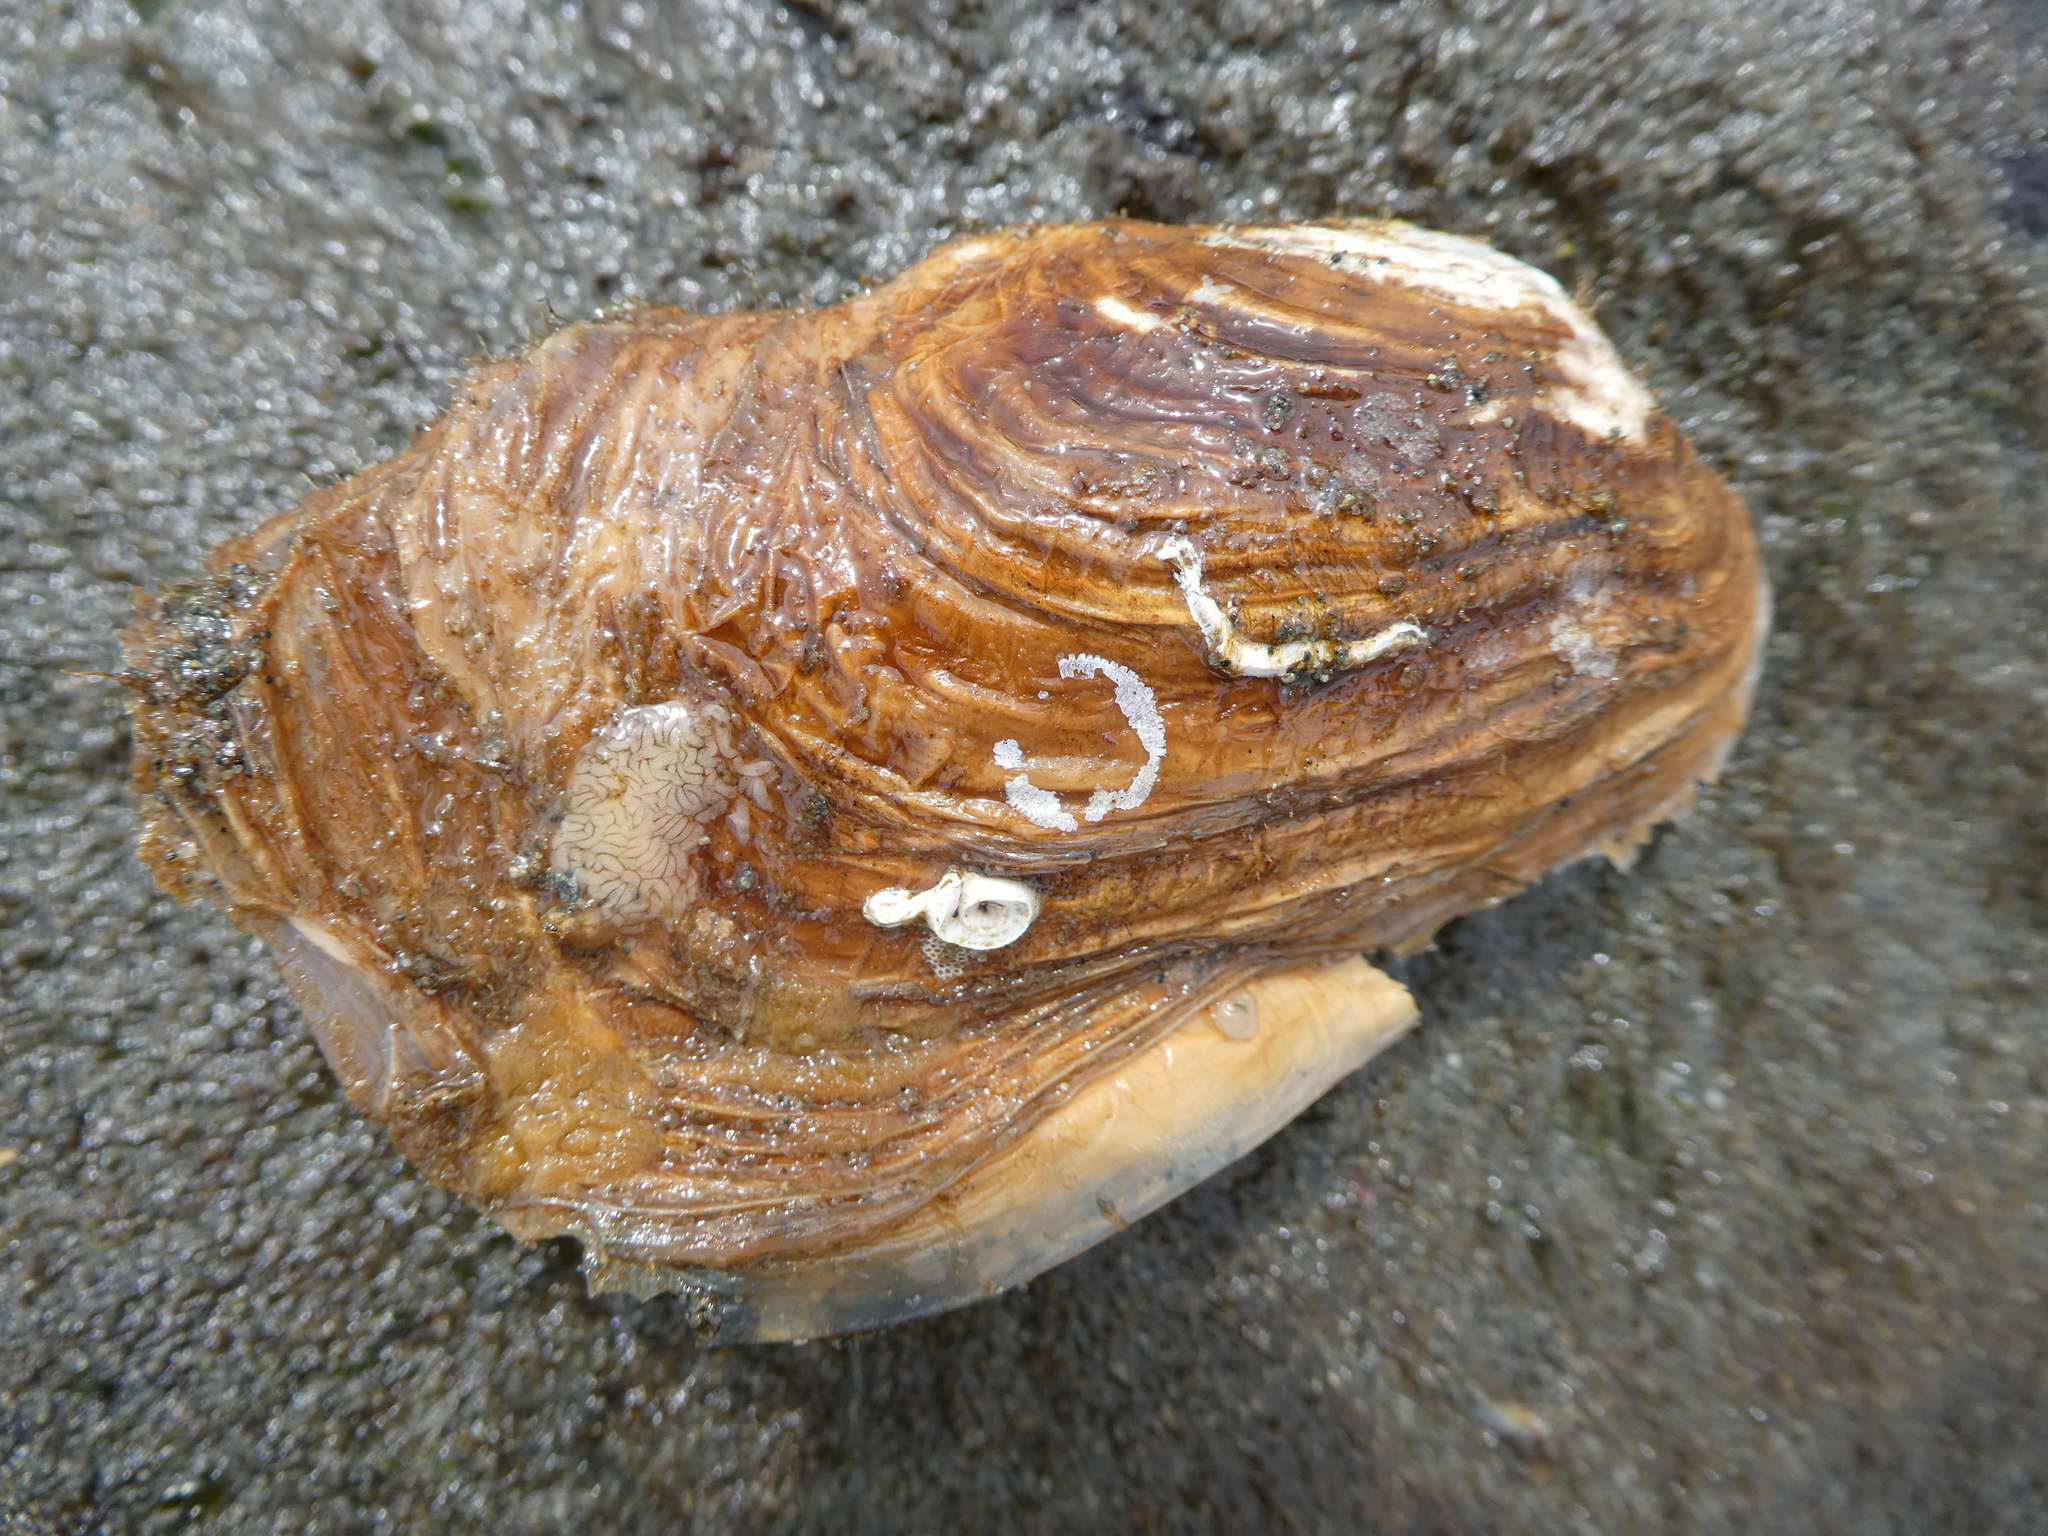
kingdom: Animalia
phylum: Mollusca
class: Bivalvia
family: Lyonsiidae
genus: Entodesma
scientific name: Entodesma navicula
